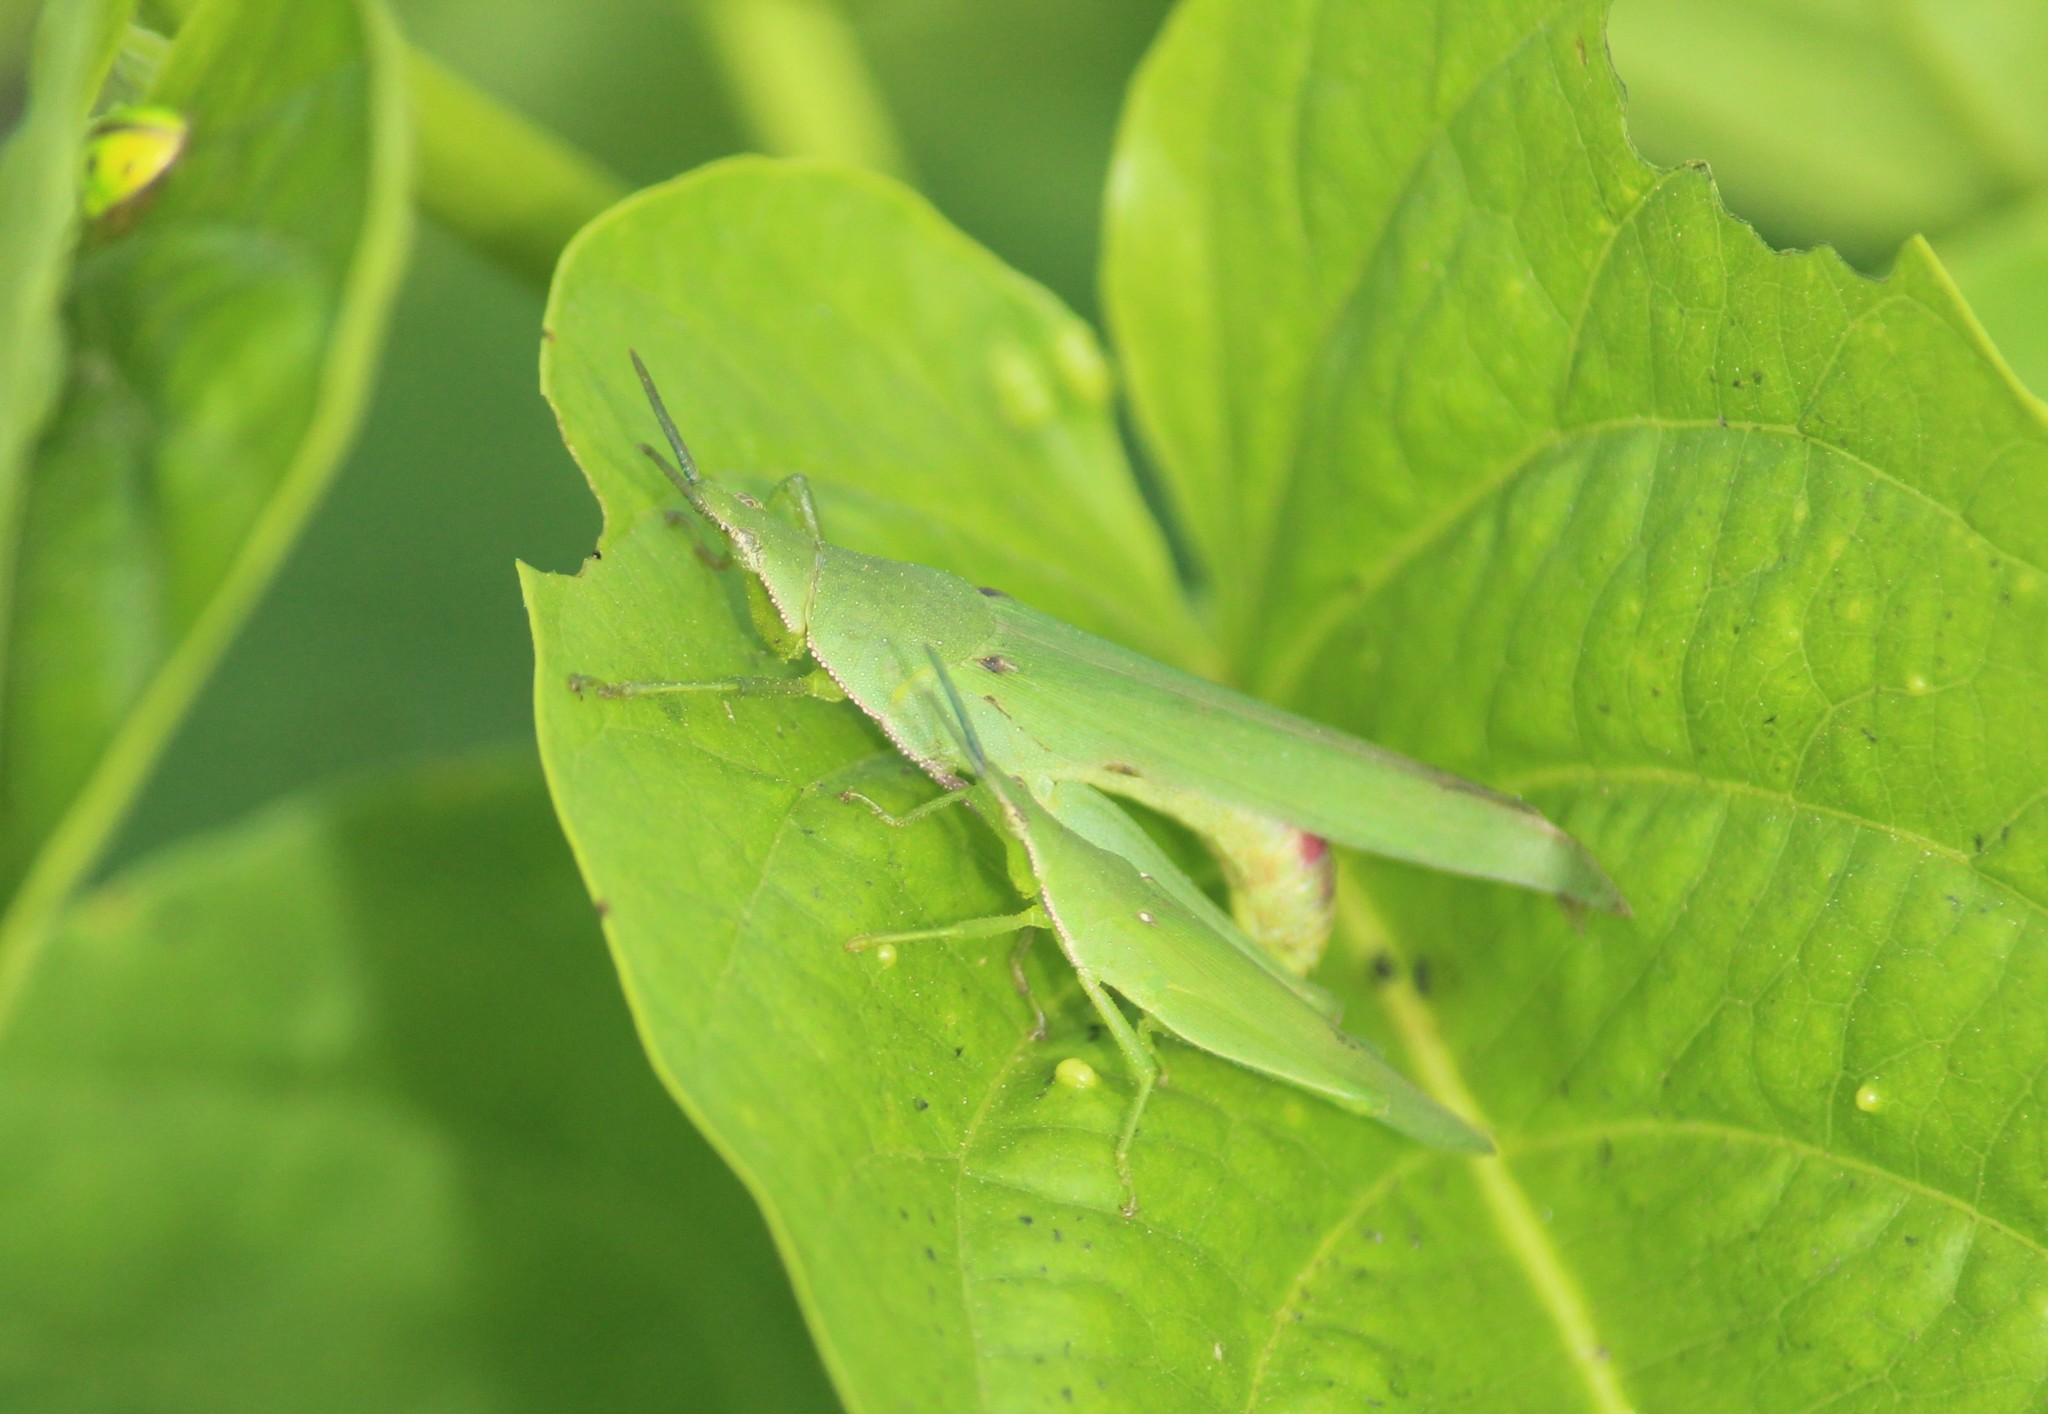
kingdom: Animalia
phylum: Arthropoda
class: Insecta
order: Orthoptera
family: Pyrgomorphidae
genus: Atractomorpha
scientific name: Atractomorpha lata
